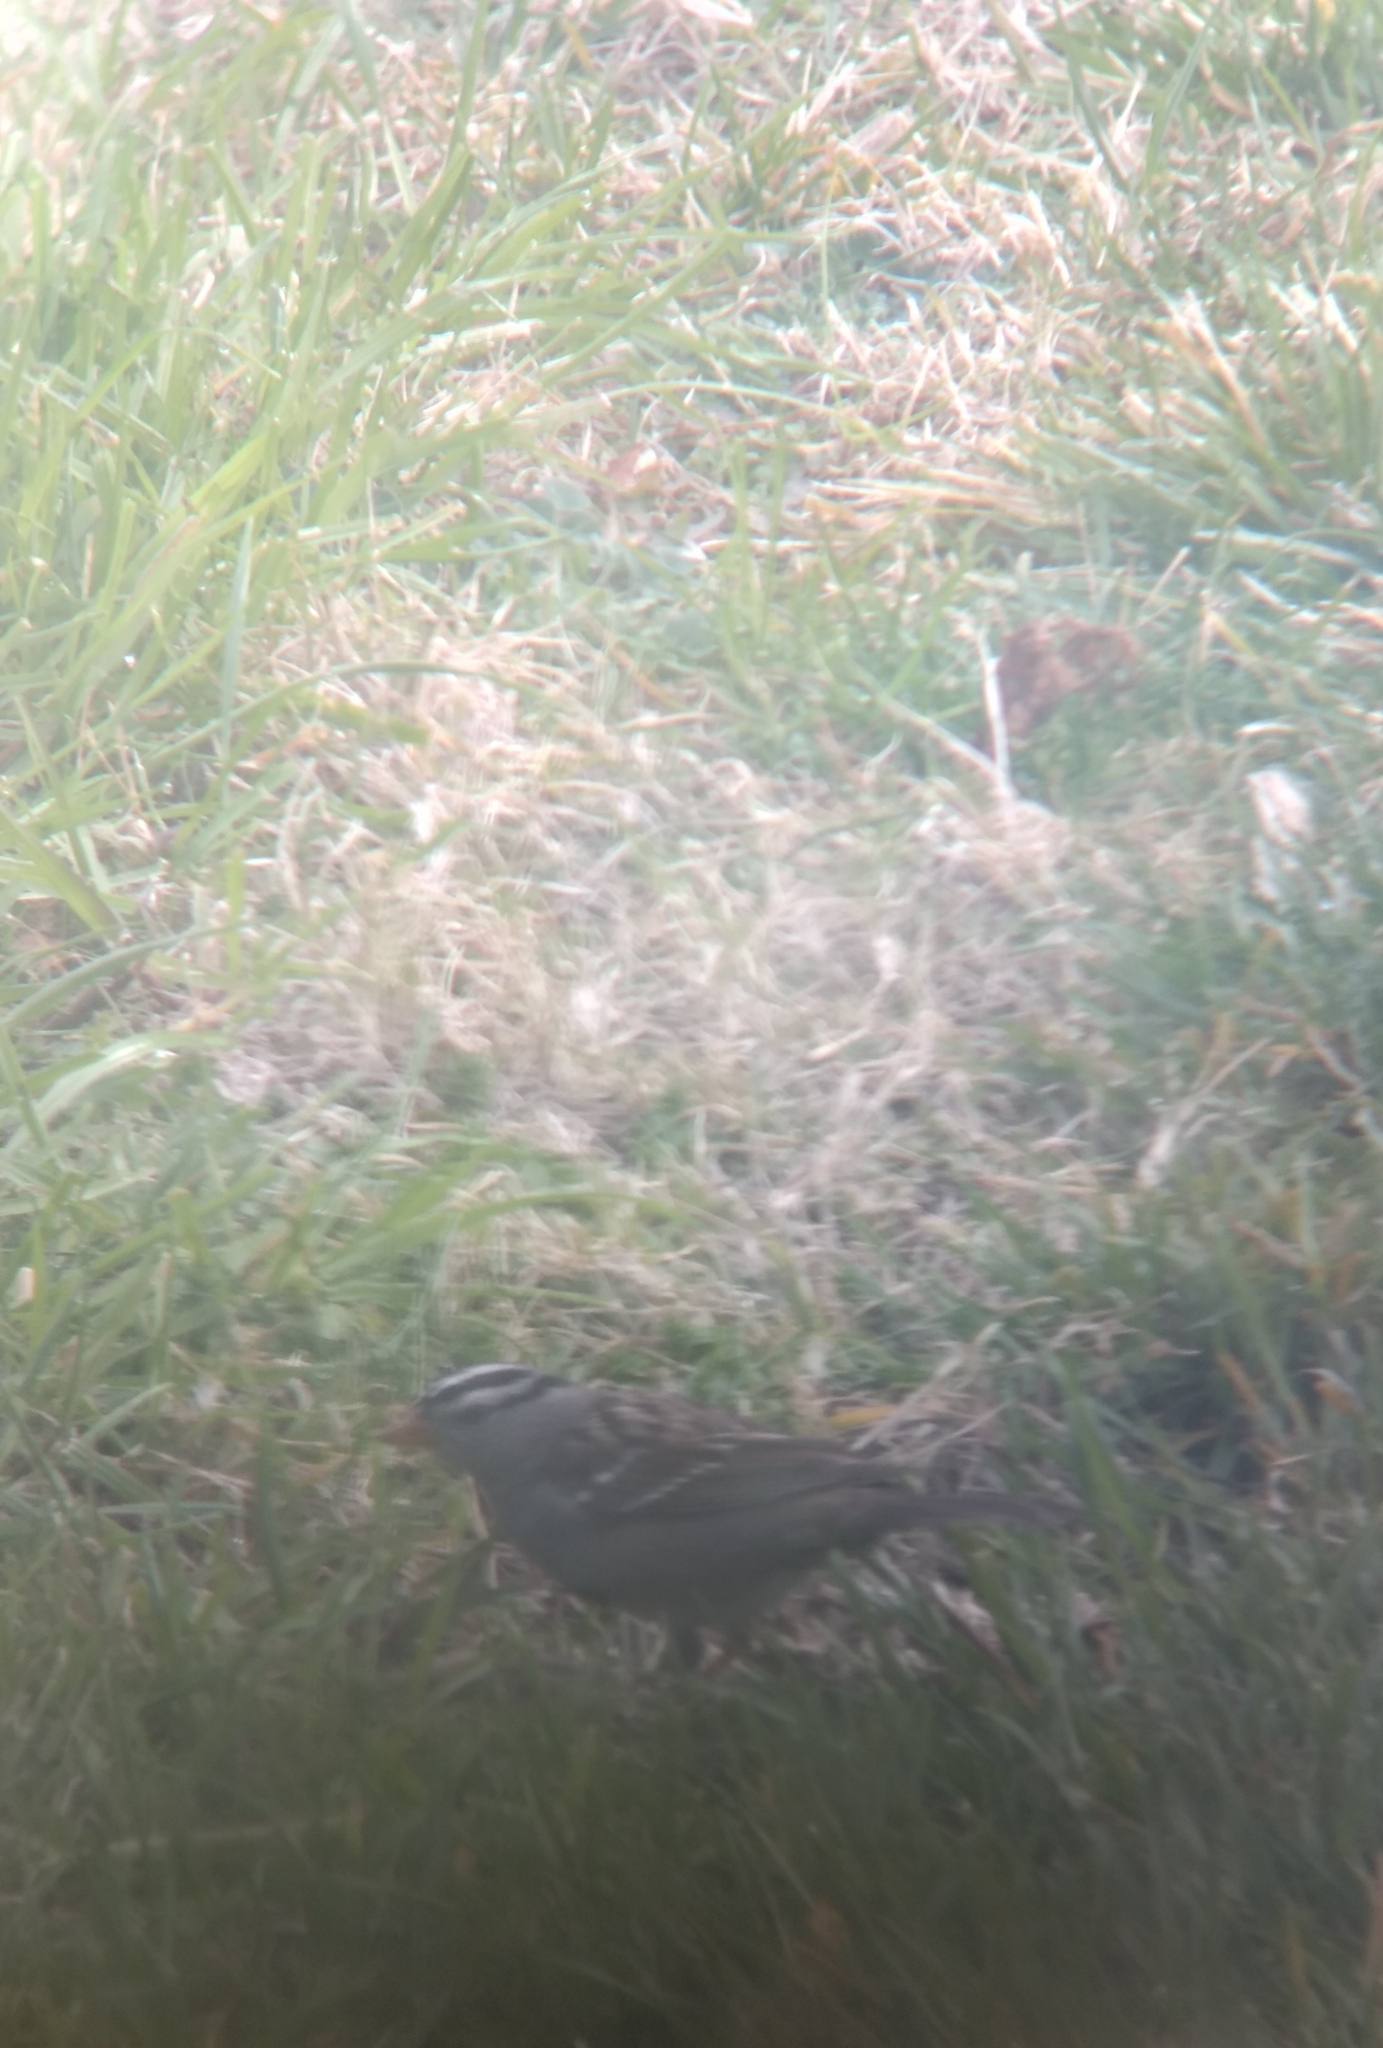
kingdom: Animalia
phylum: Chordata
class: Aves
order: Passeriformes
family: Passerellidae
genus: Zonotrichia
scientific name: Zonotrichia leucophrys
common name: White-crowned sparrow
